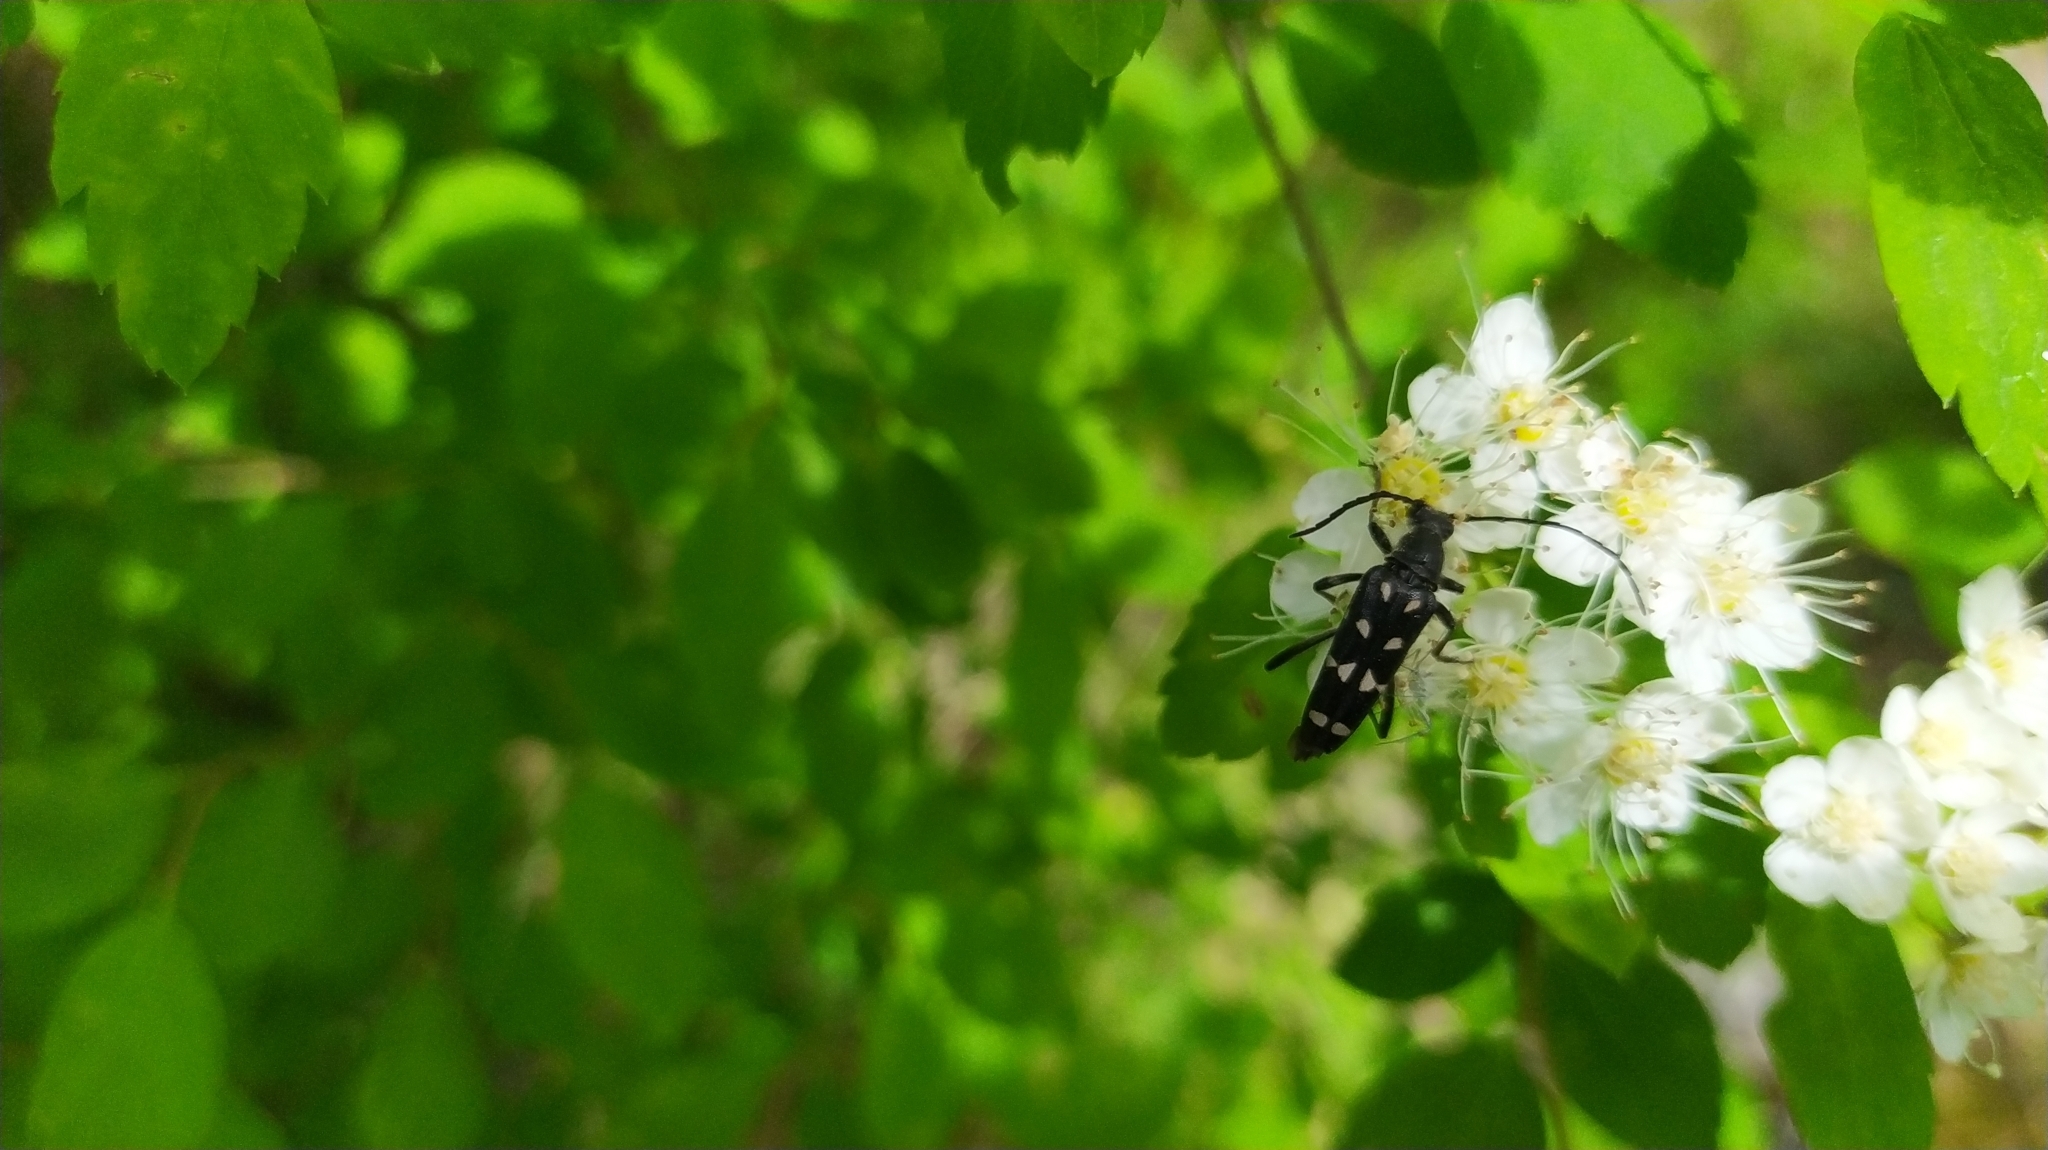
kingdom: Animalia
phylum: Arthropoda
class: Insecta
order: Coleoptera
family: Cerambycidae
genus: Leptura
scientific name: Leptura duodecimguttata
